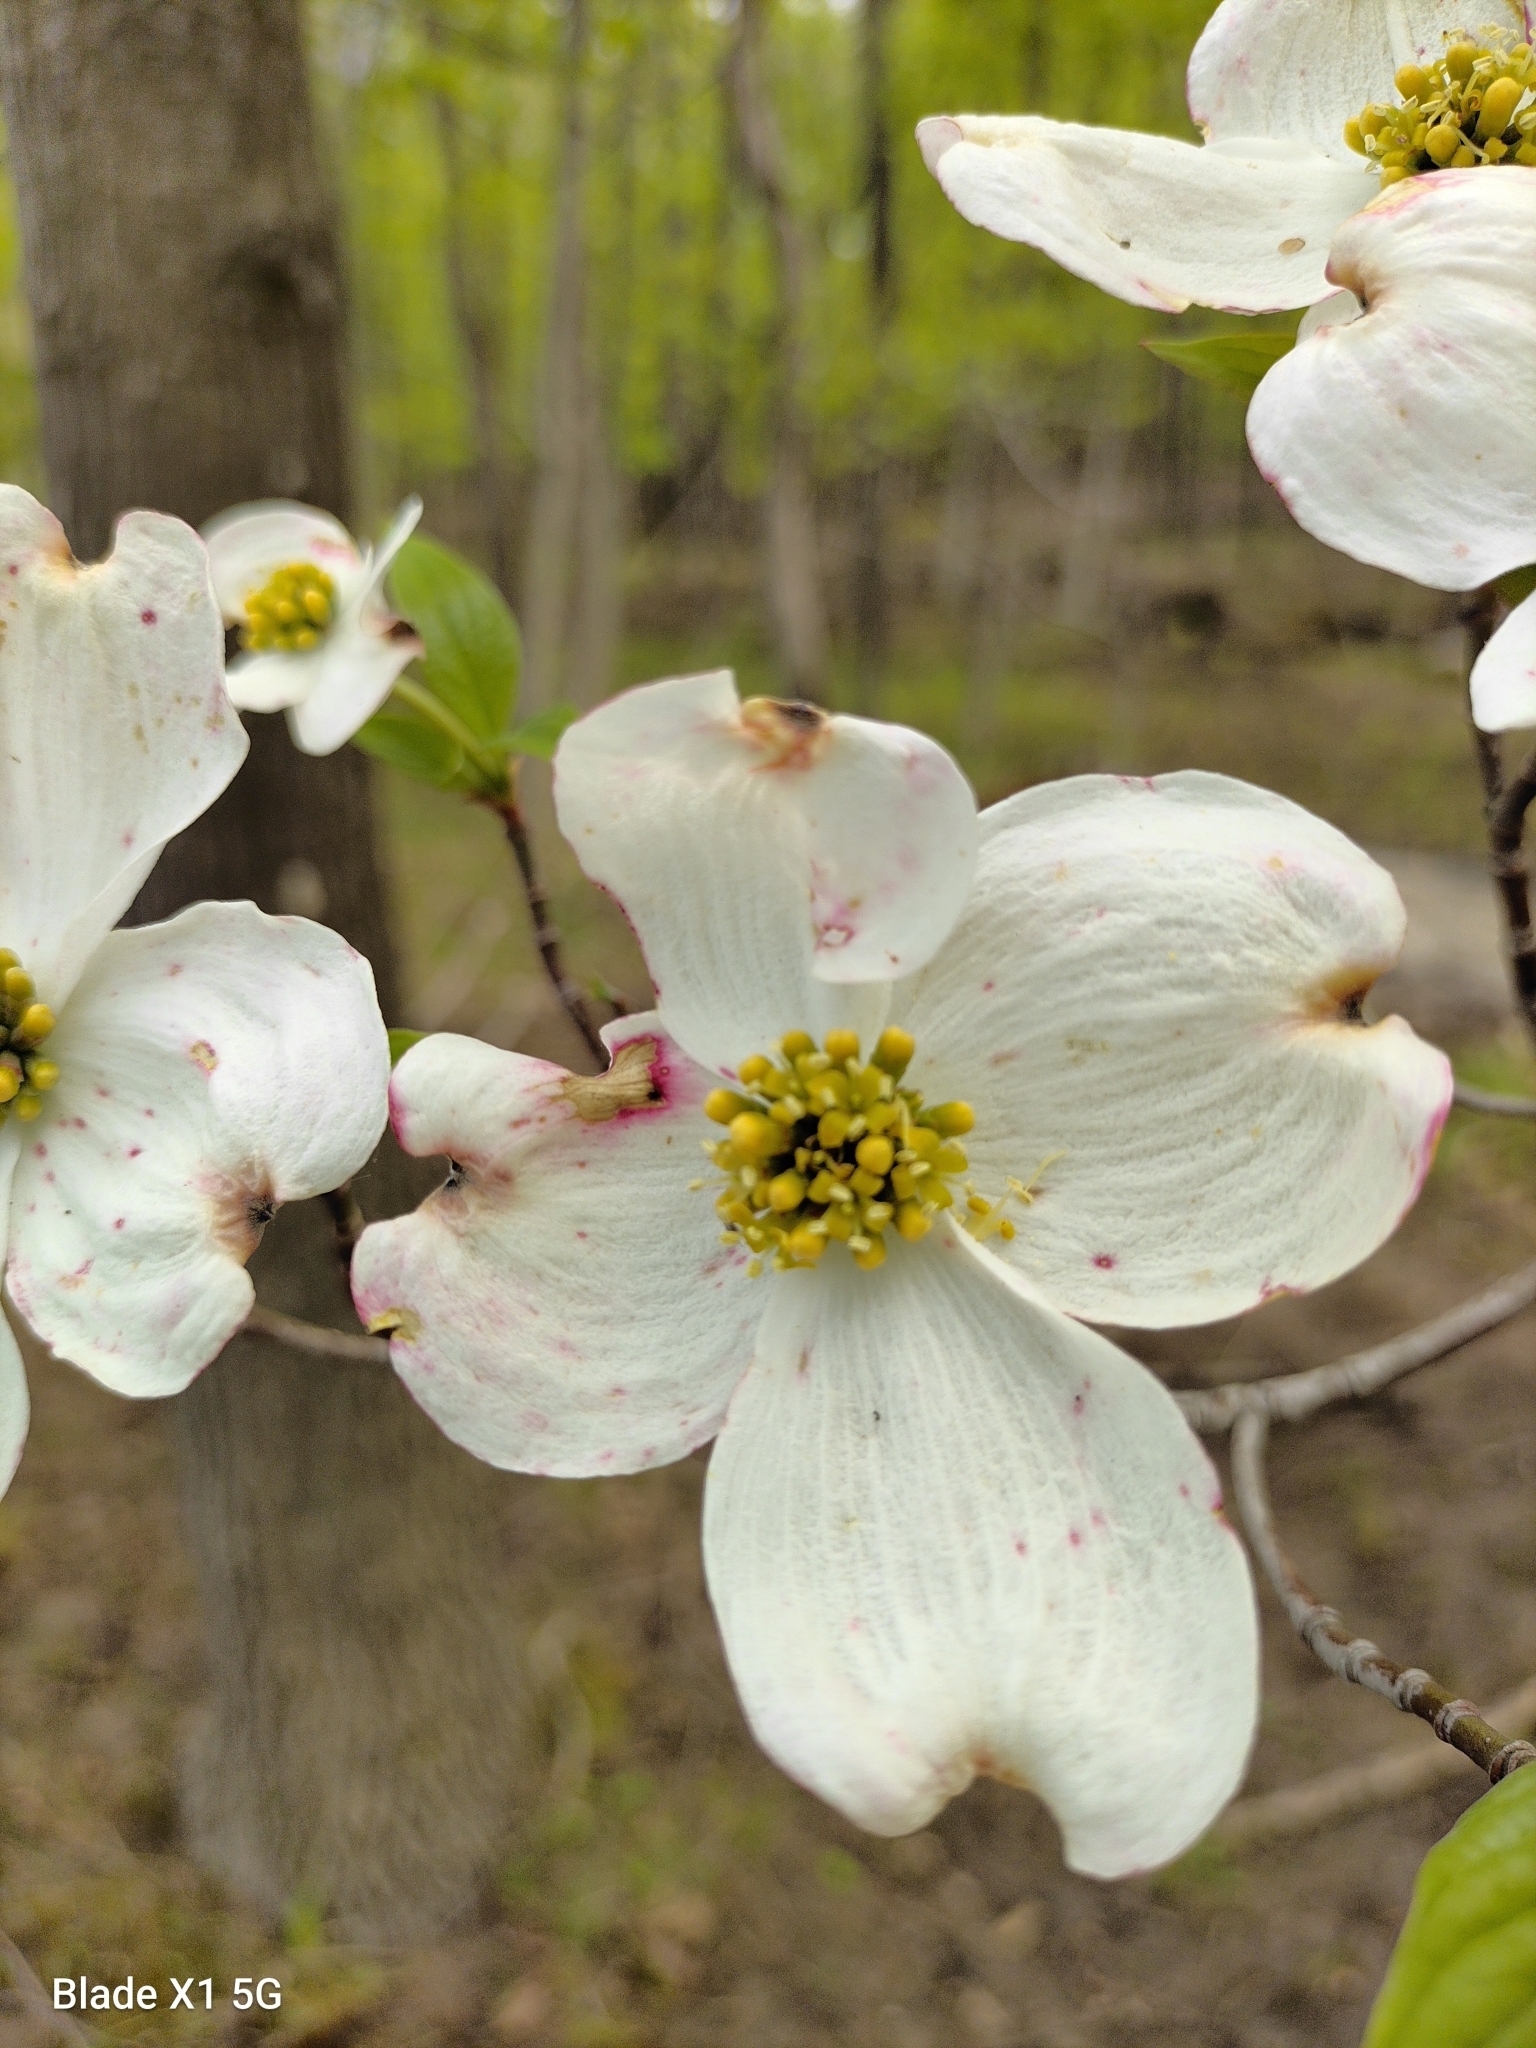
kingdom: Fungi
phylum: Ascomycota
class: Sordariomycetes
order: Diaporthales
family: Gnomoniaceae
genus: Discula
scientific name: Discula destructiva
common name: Dogwood anthracnose
